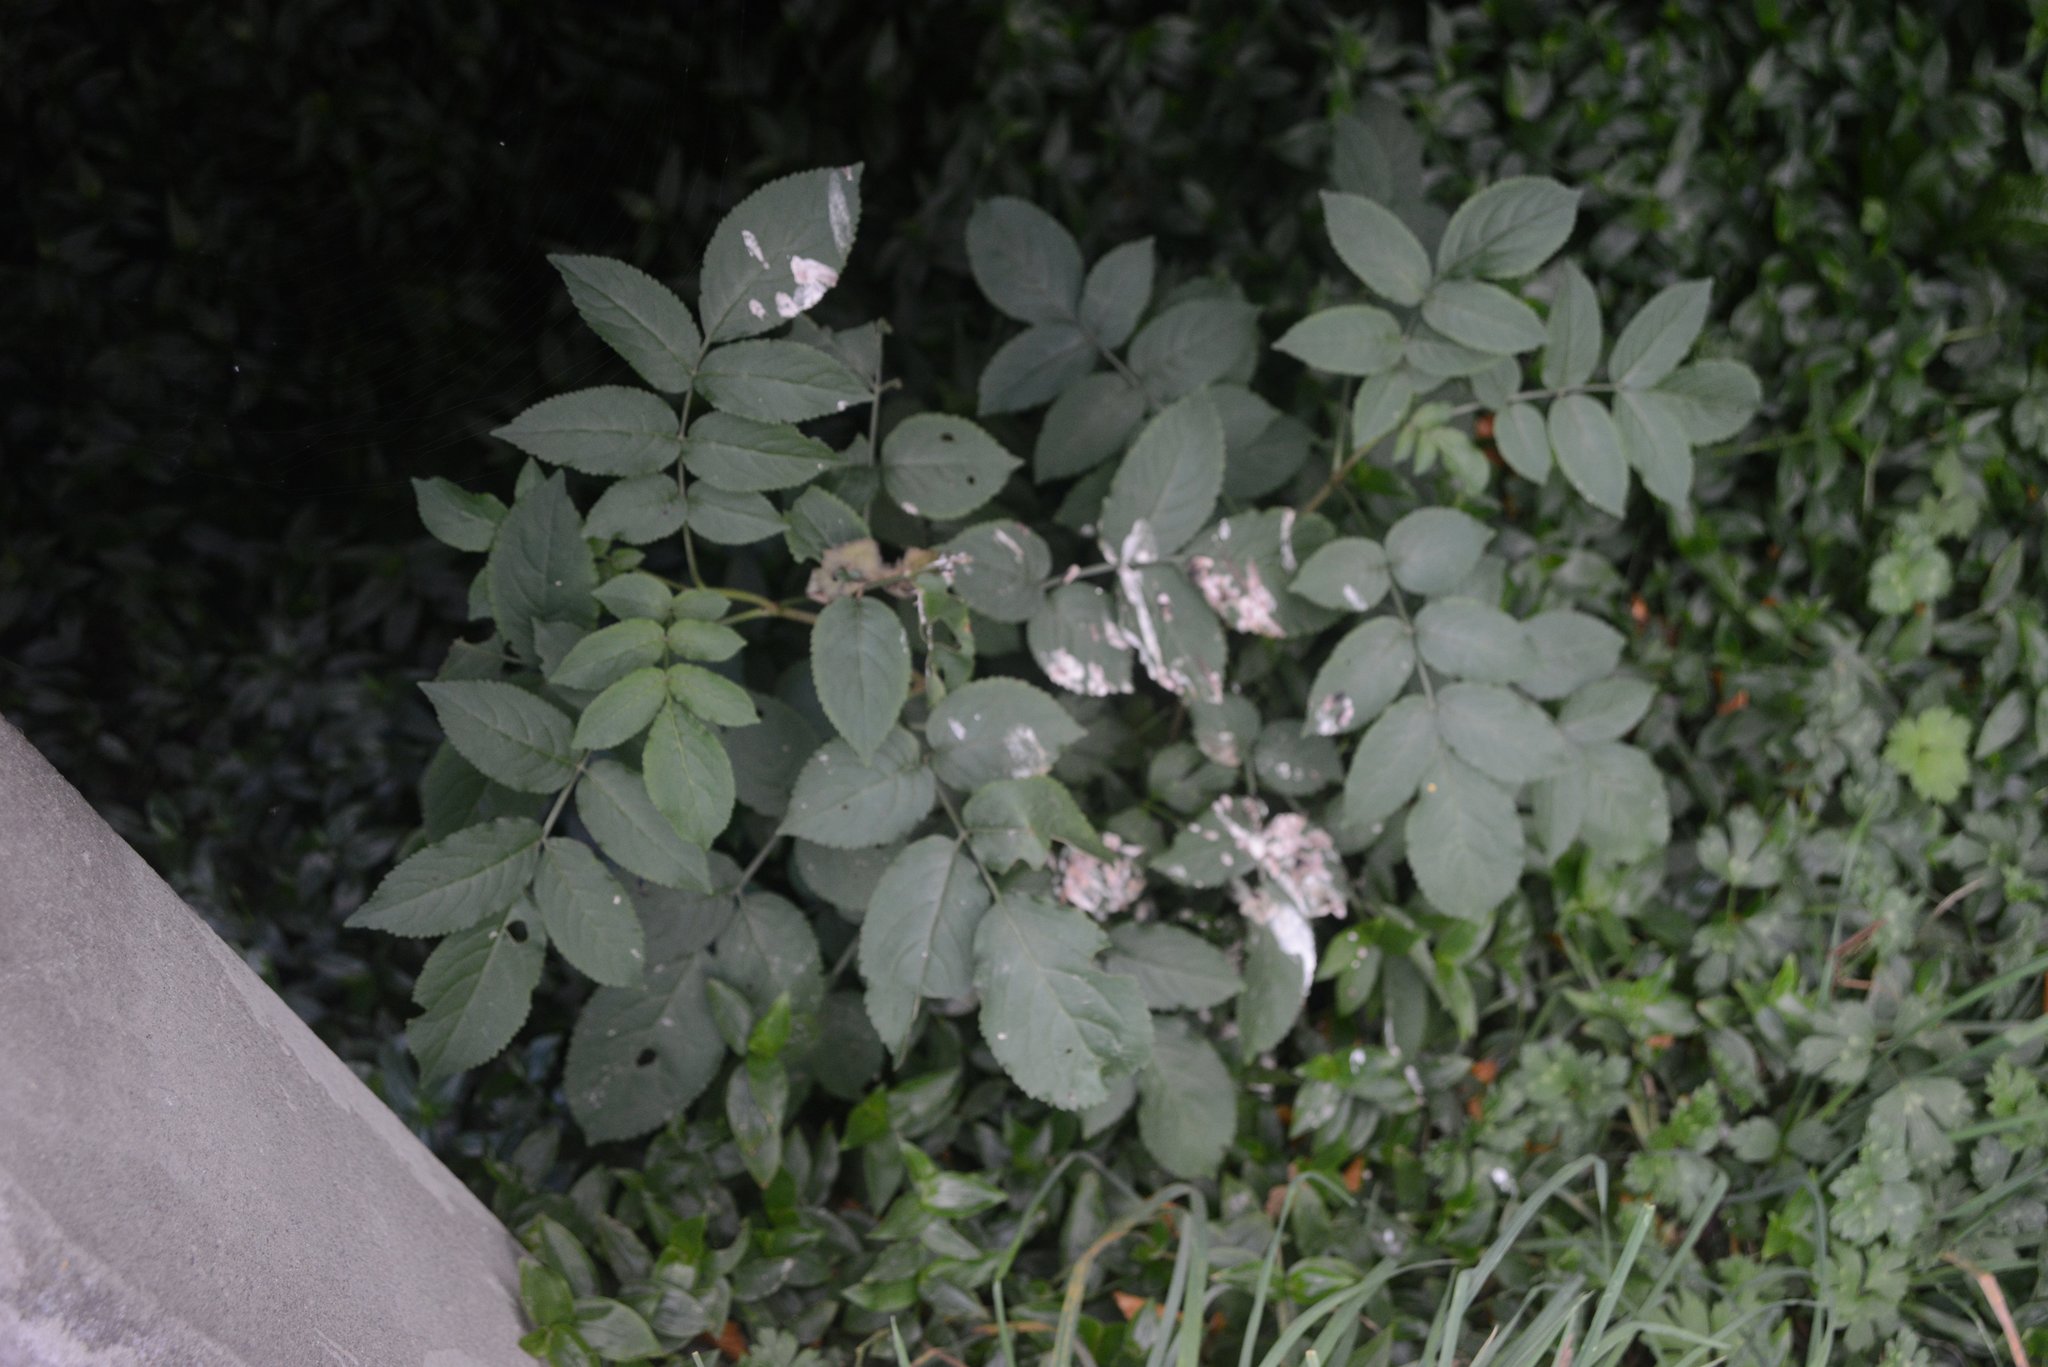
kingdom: Plantae
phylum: Tracheophyta
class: Magnoliopsida
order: Dipsacales
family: Viburnaceae
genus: Sambucus
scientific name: Sambucus nigra
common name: Elder
